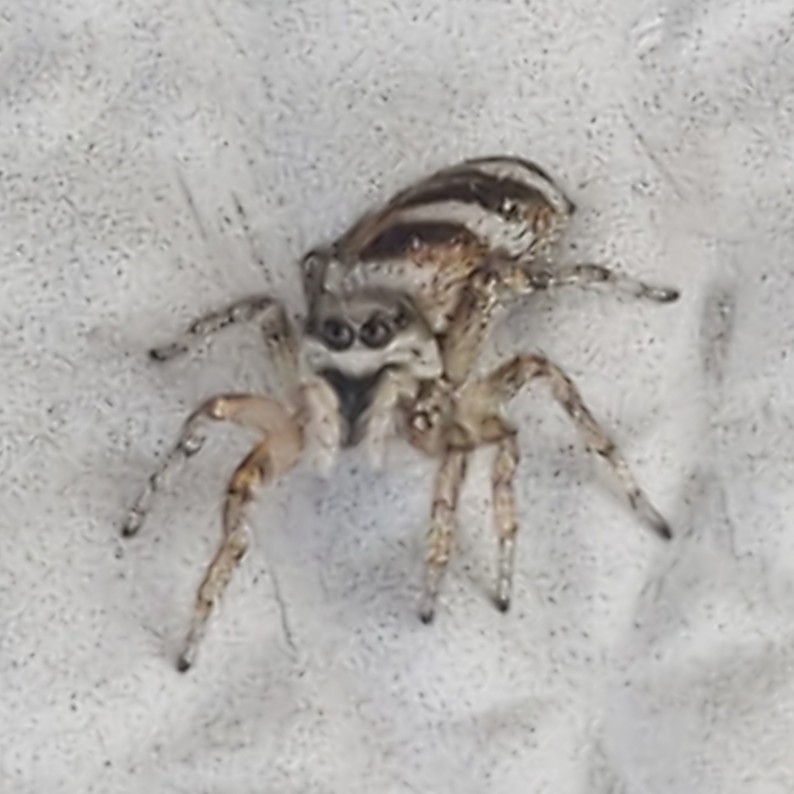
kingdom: Animalia
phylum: Arthropoda
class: Arachnida
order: Araneae
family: Salticidae
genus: Salticus
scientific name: Salticus scenicus
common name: Zebra jumper
